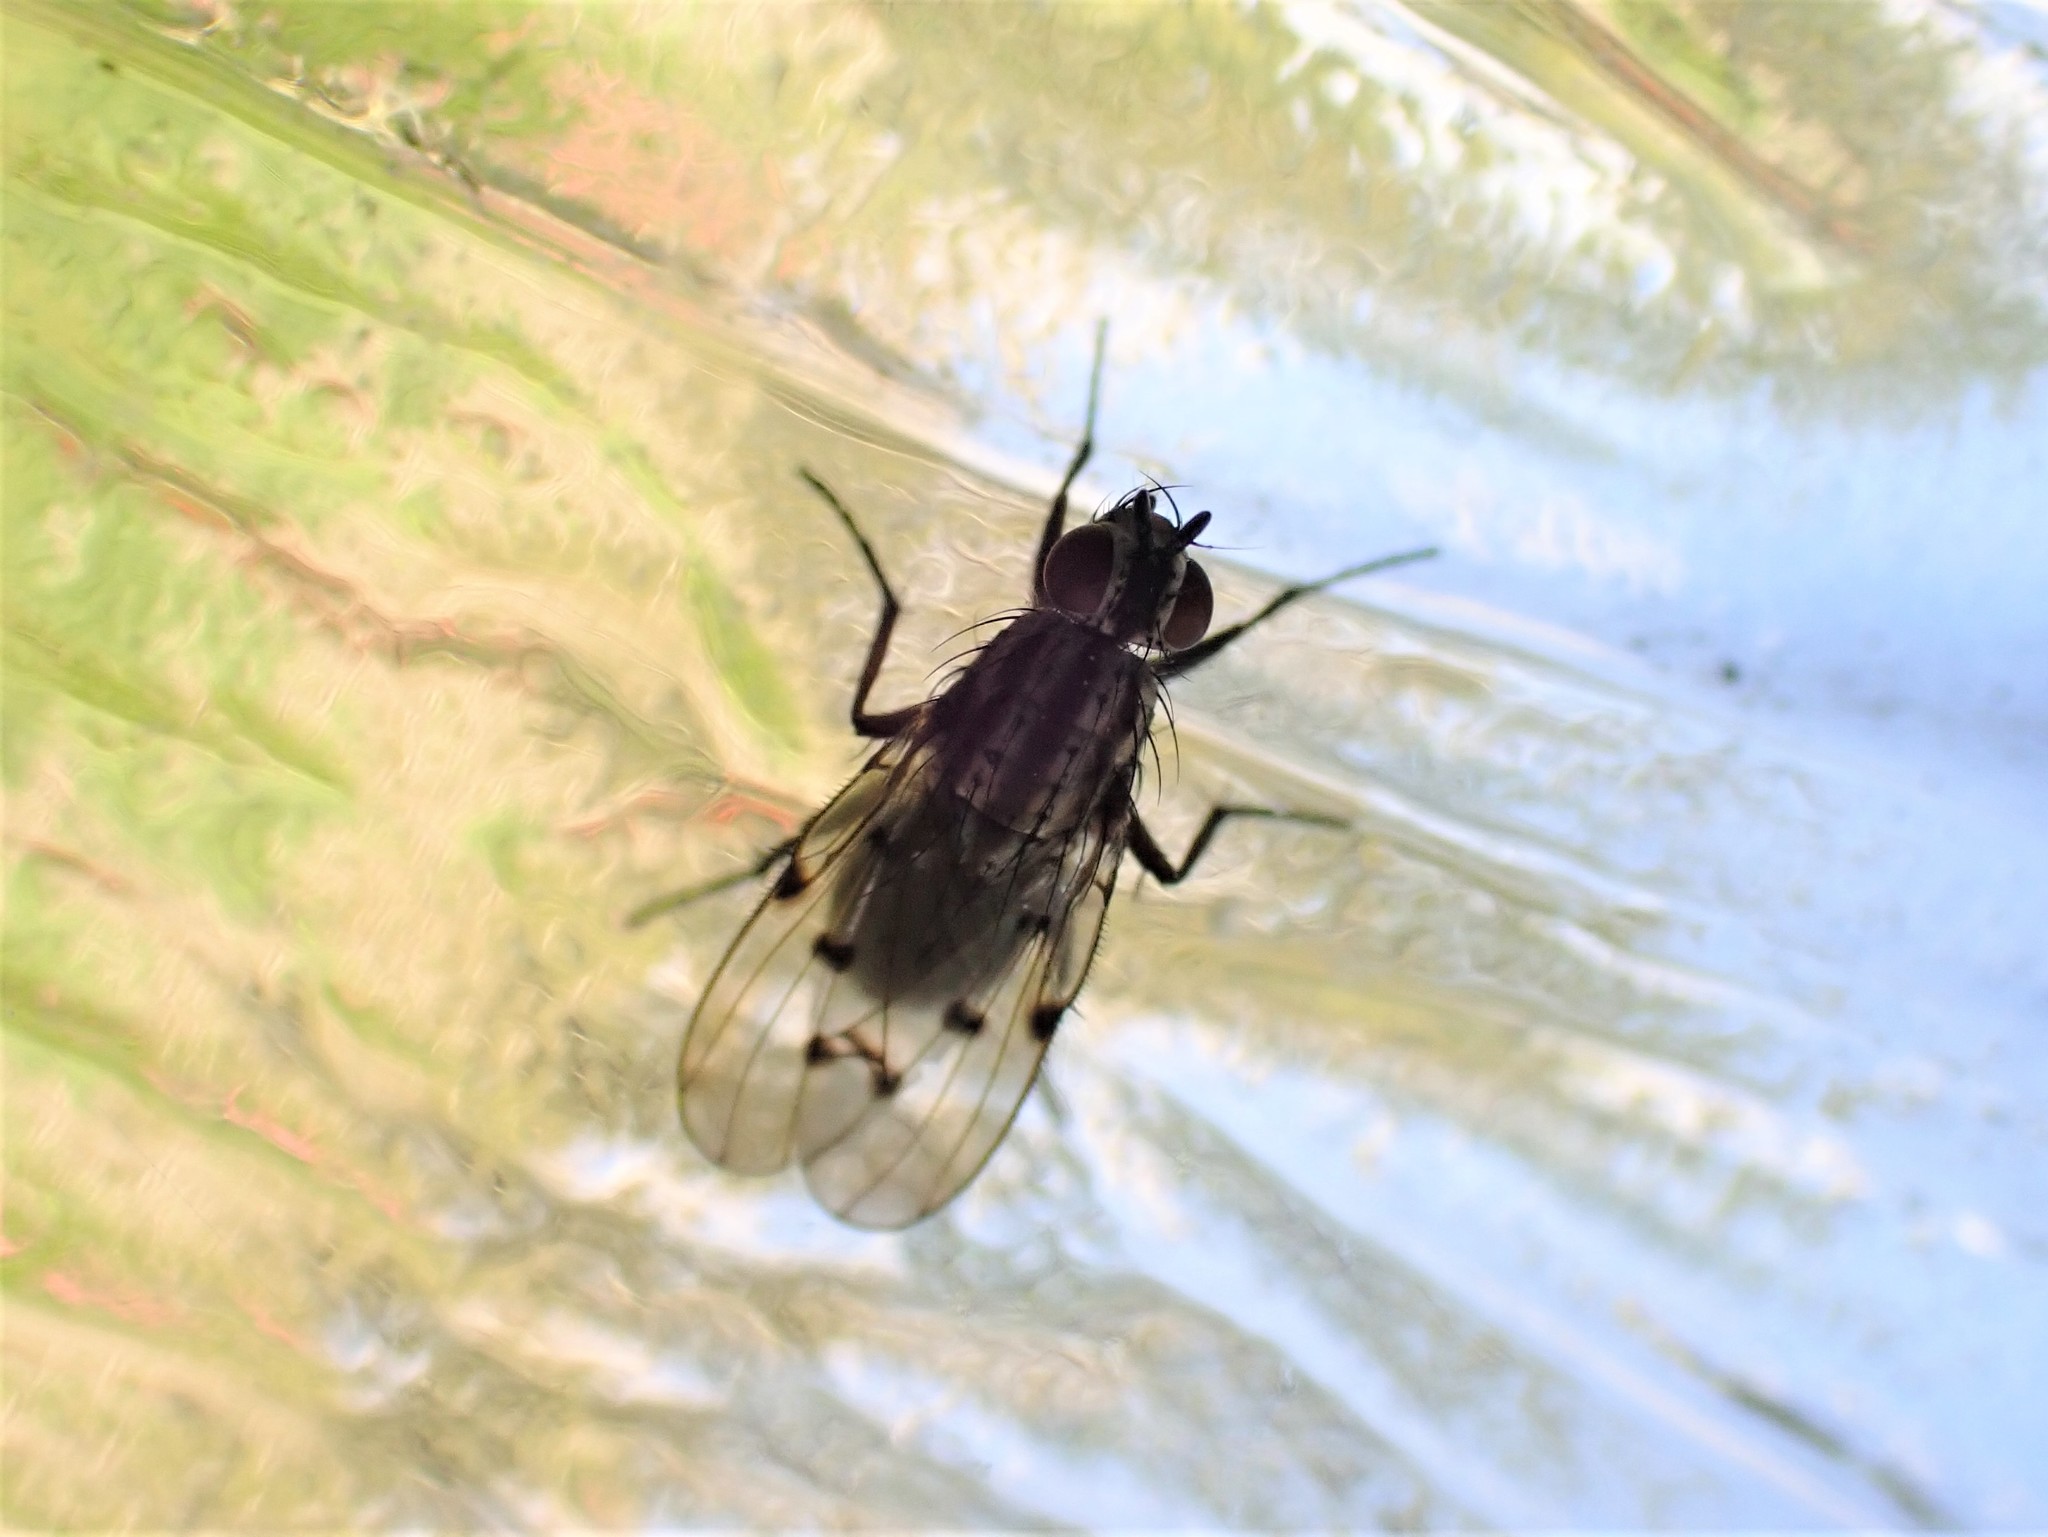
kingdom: Animalia
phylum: Arthropoda
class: Insecta
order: Diptera
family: Anthomyiidae
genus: Anthomyia
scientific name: Anthomyia punctipennis
